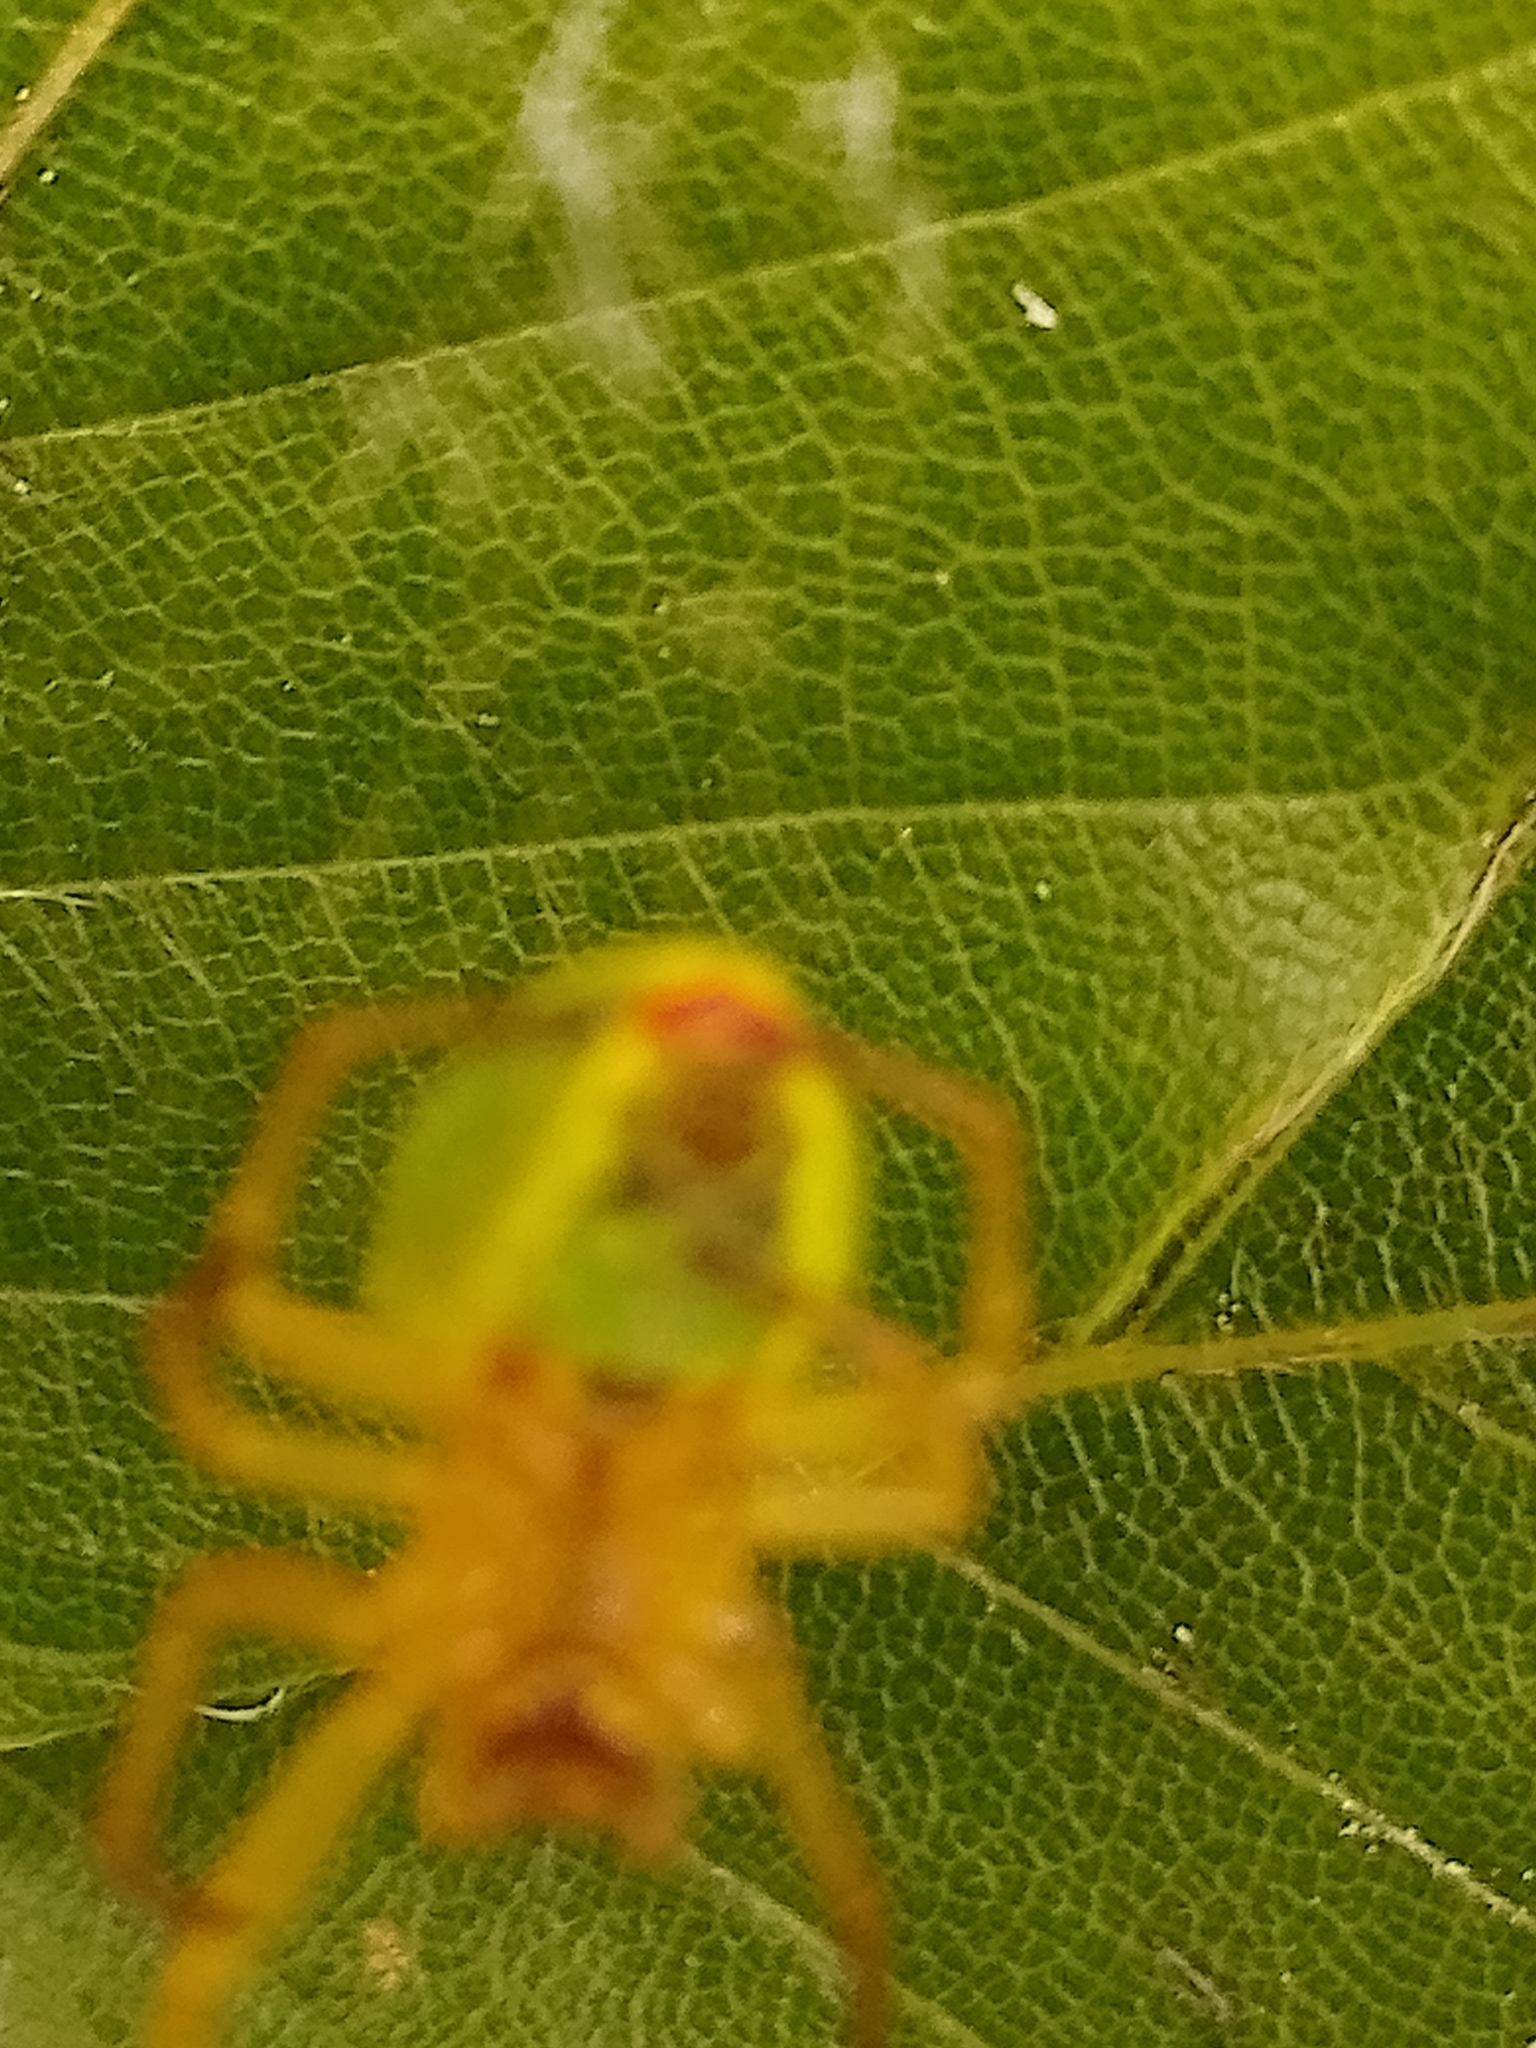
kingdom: Animalia
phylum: Arthropoda
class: Arachnida
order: Araneae
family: Araneidae
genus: Araniella
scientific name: Araniella
